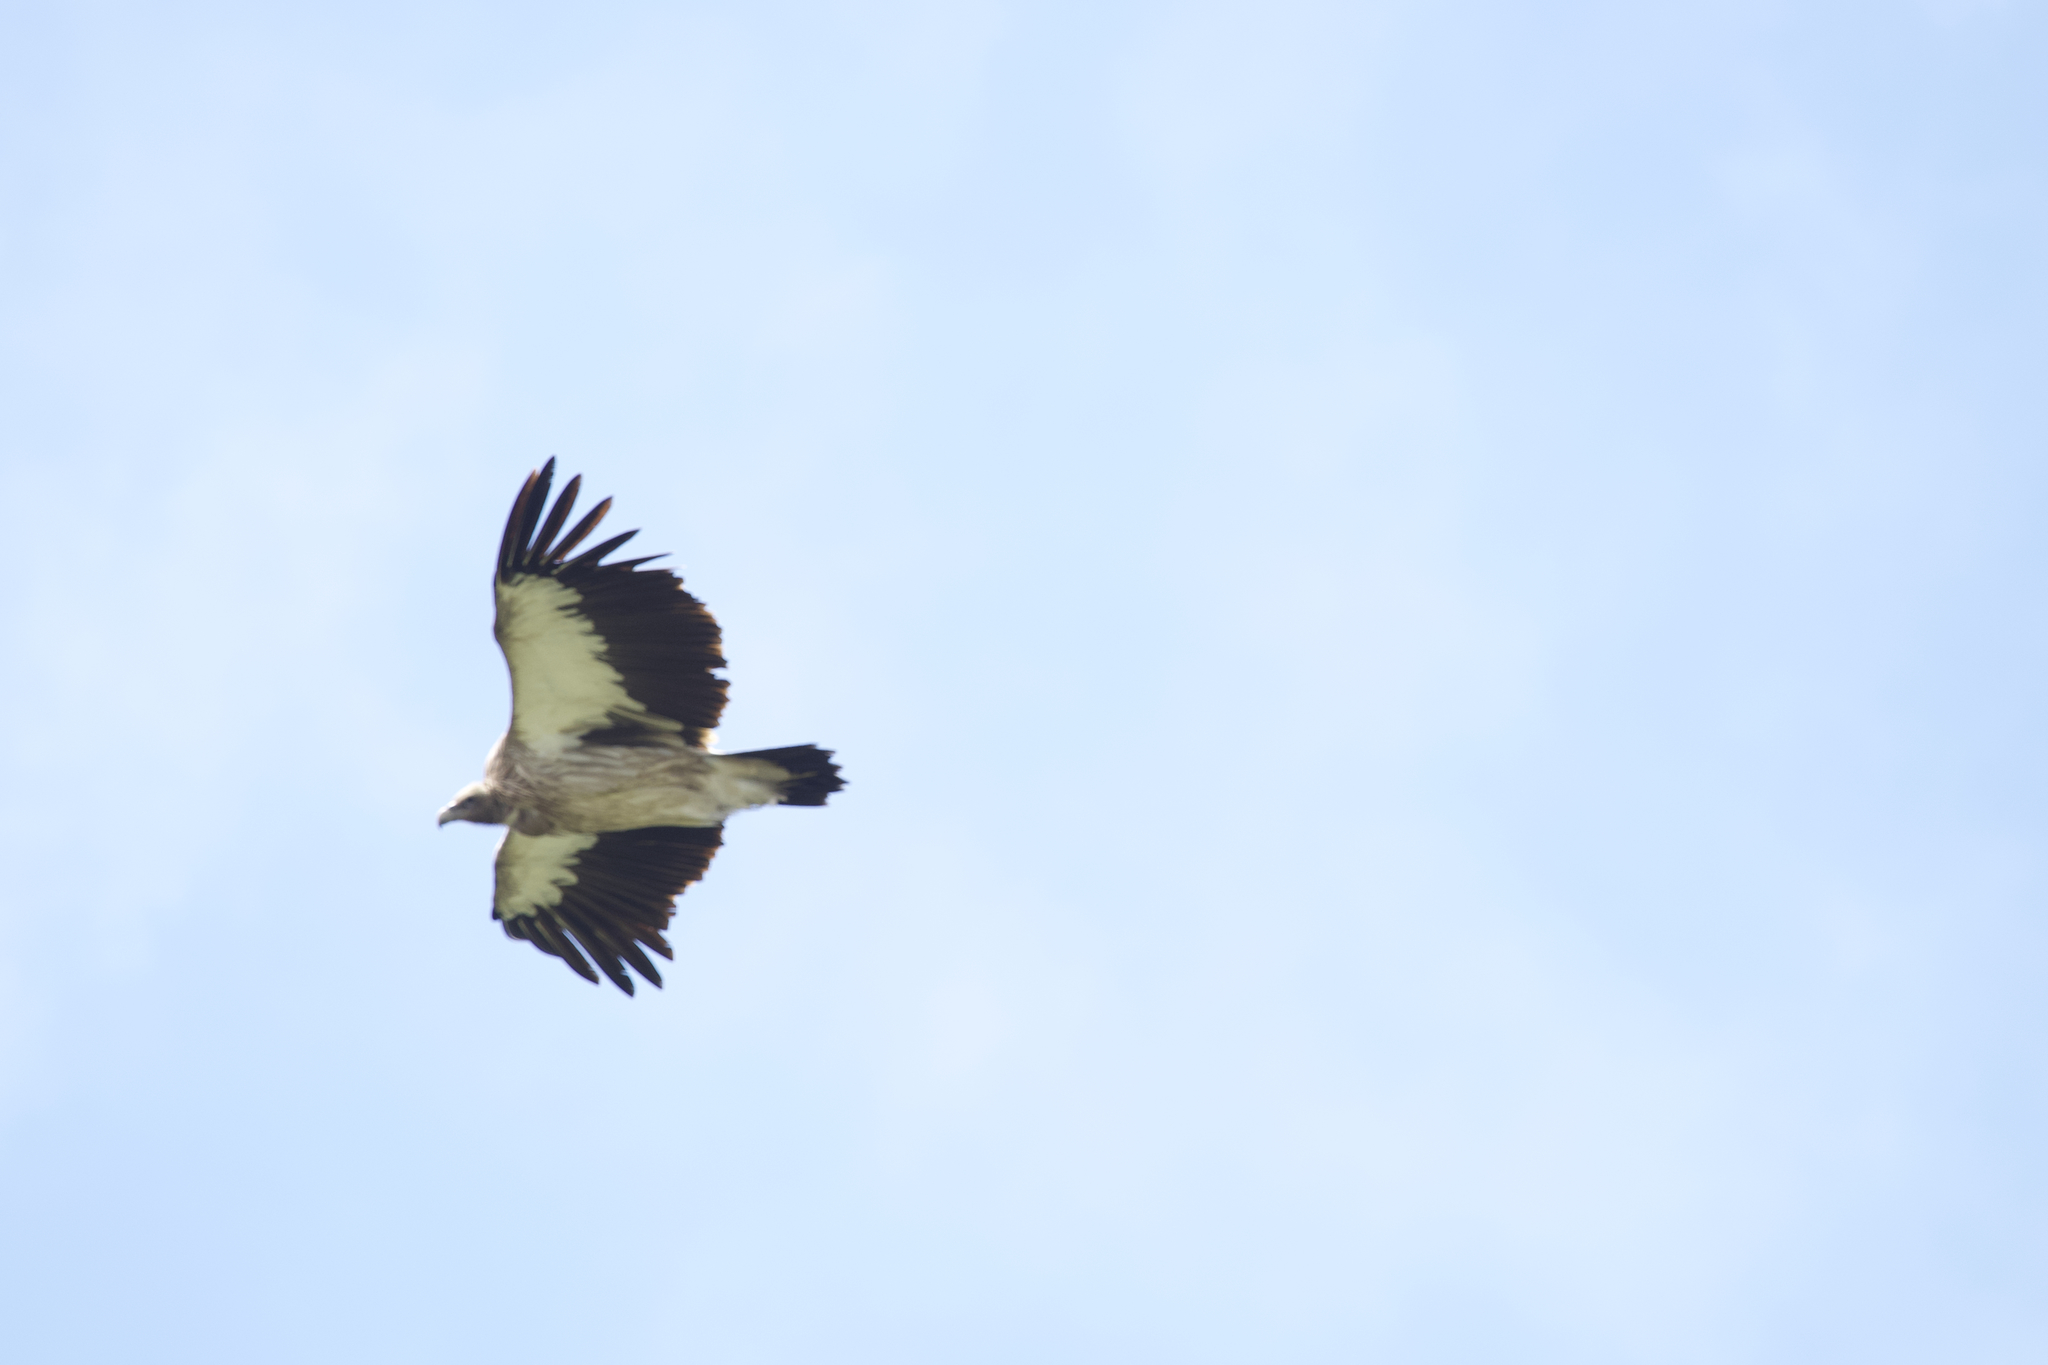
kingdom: Animalia
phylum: Chordata
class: Aves
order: Accipitriformes
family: Accipitridae
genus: Gyps
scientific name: Gyps himalayensis
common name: Himalayan griffon
